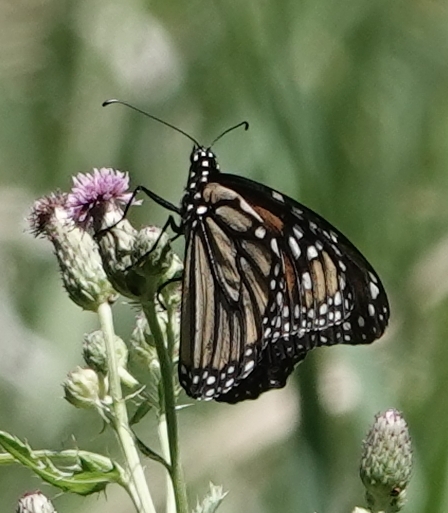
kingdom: Animalia
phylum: Arthropoda
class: Insecta
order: Lepidoptera
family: Nymphalidae
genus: Danaus
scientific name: Danaus plexippus
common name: Monarch
